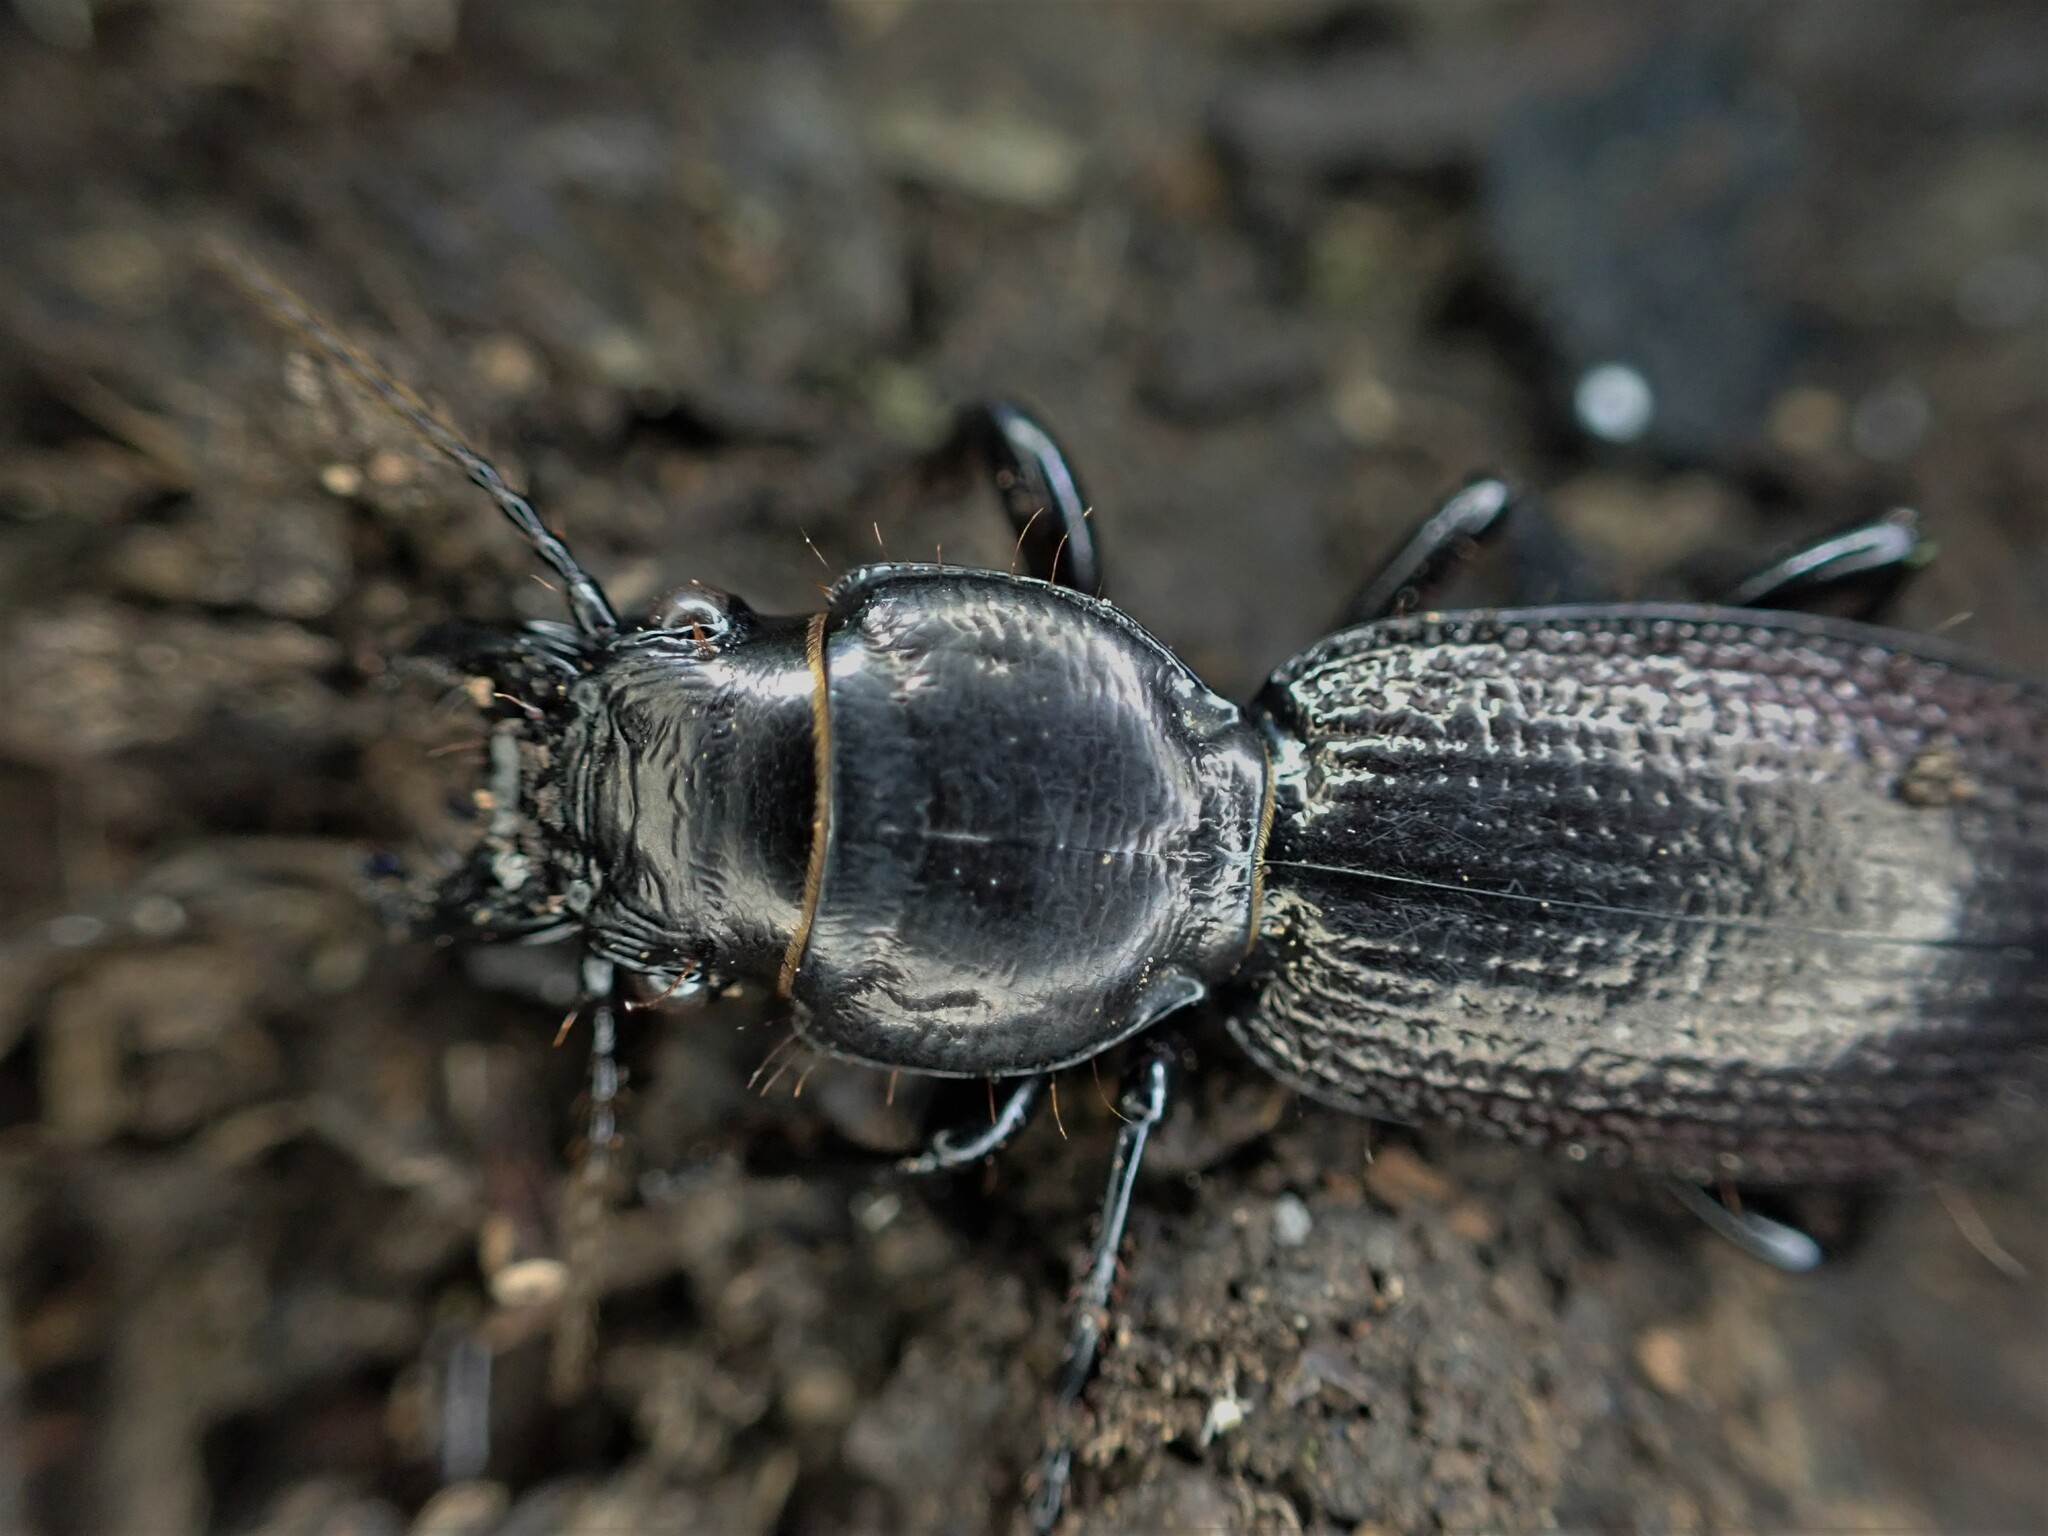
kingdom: Animalia
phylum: Arthropoda
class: Insecta
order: Coleoptera
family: Carabidae
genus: Mecodema
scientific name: Mecodema howittii
